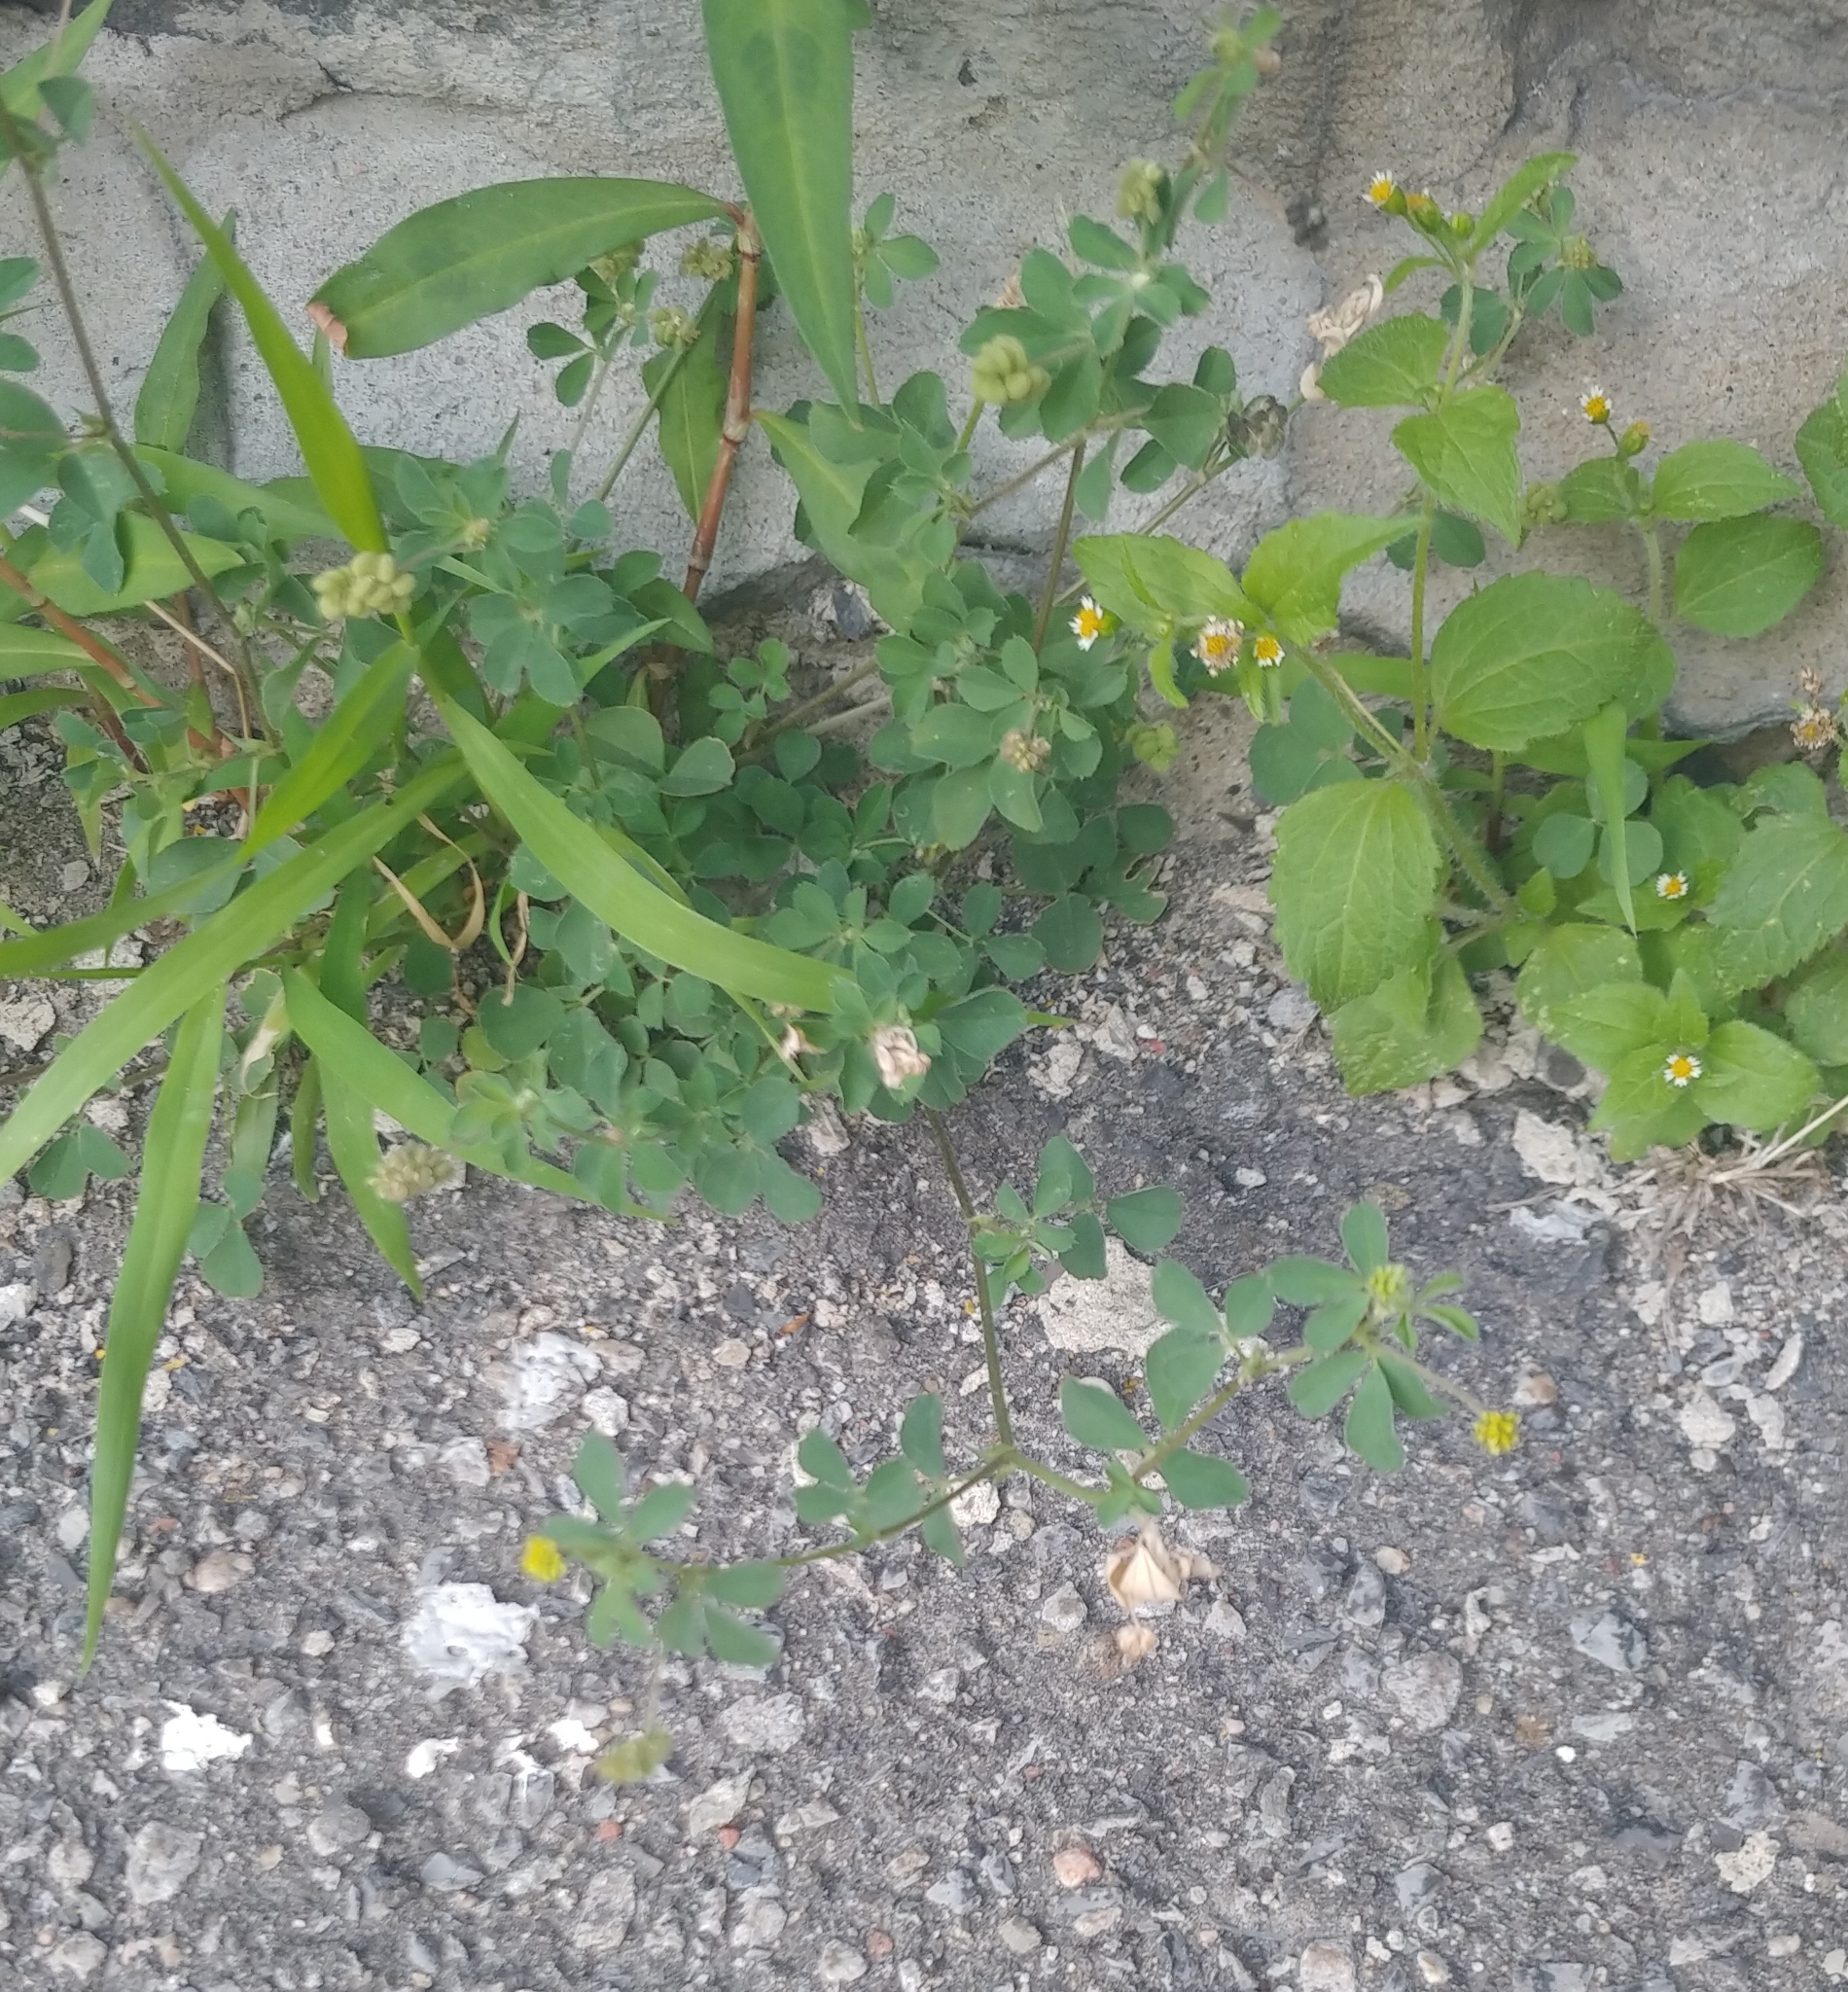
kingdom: Plantae
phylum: Tracheophyta
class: Magnoliopsida
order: Fabales
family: Fabaceae
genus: Medicago
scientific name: Medicago lupulina
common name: Black medick
